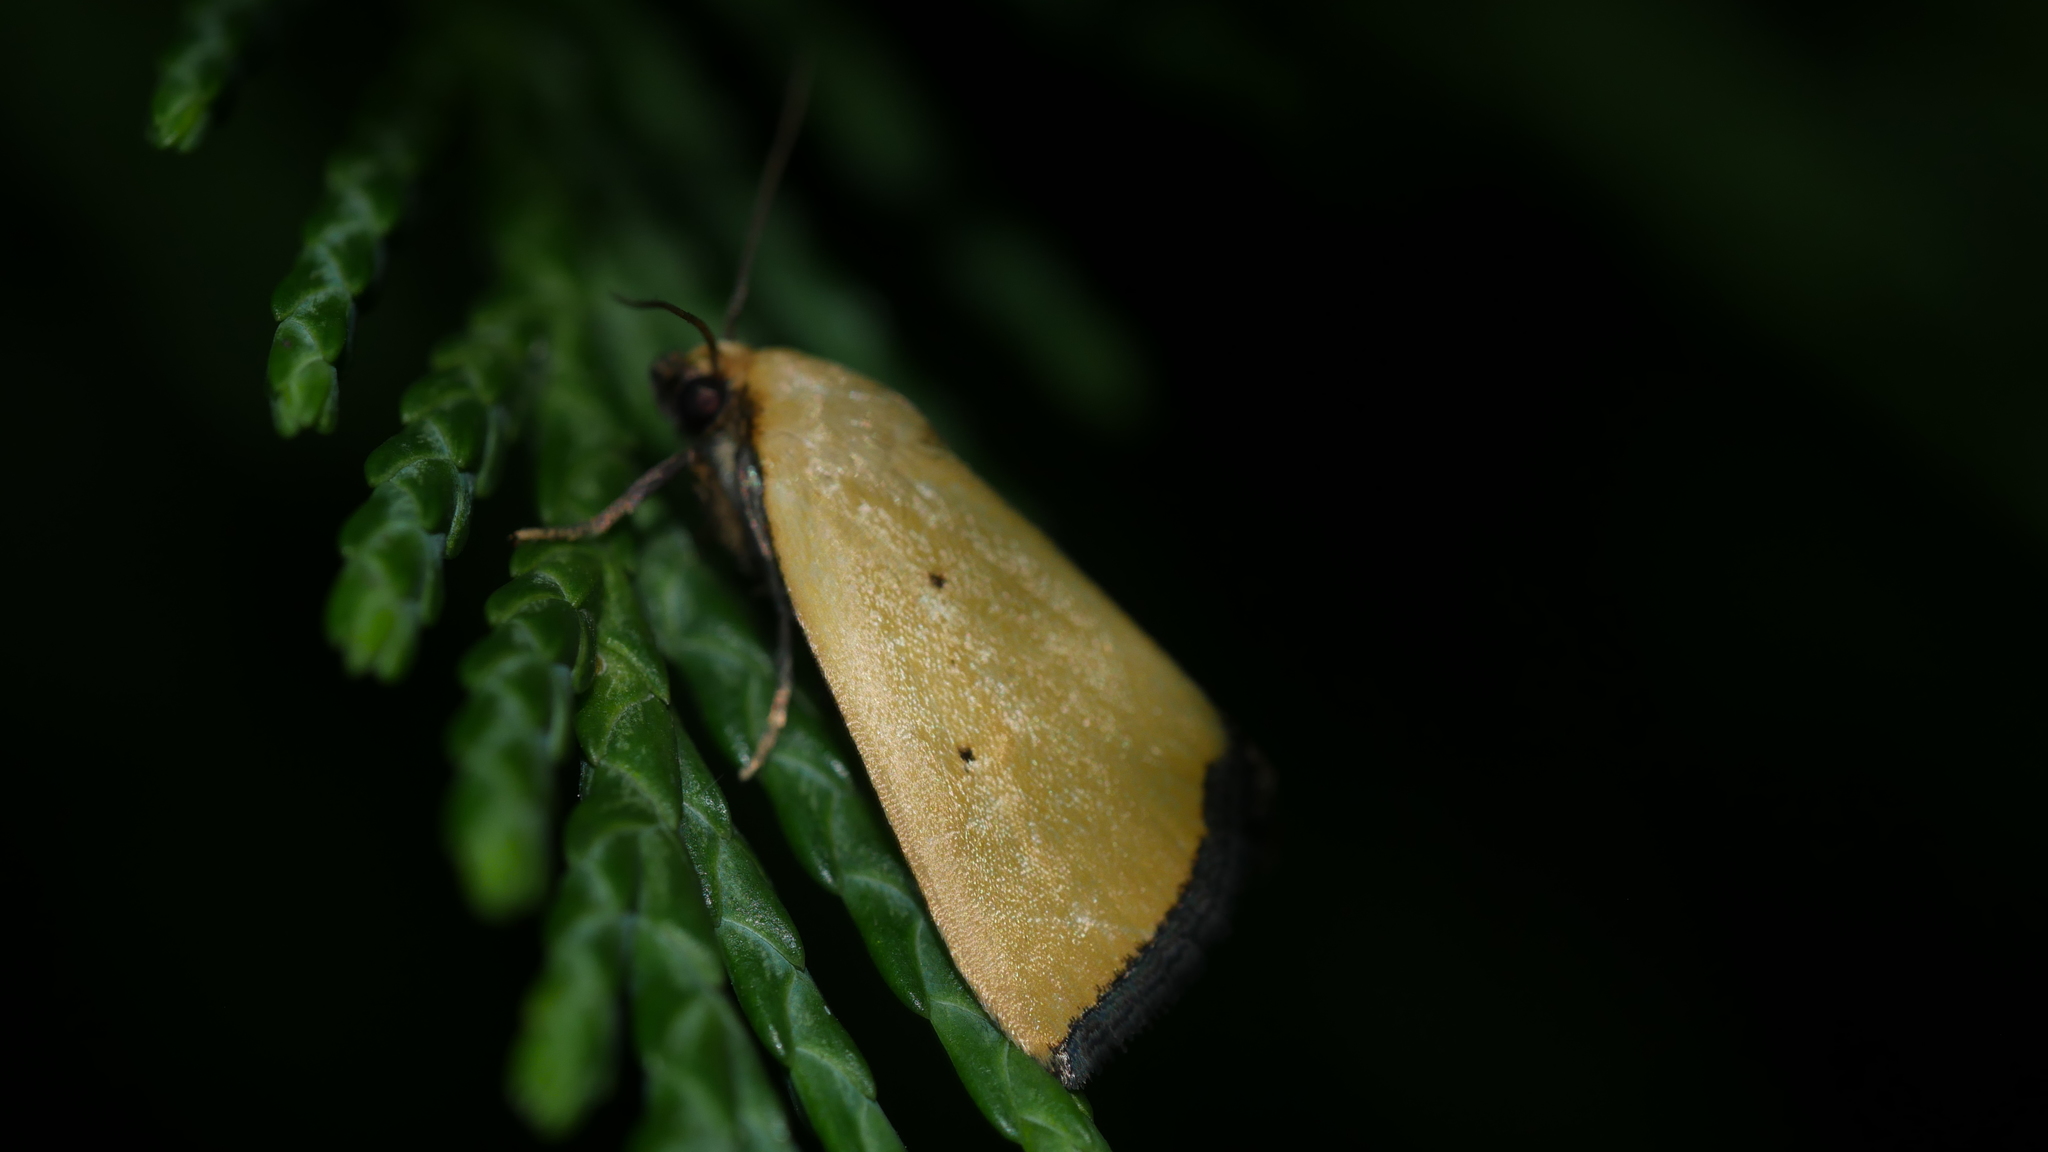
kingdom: Animalia
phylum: Arthropoda
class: Insecta
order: Lepidoptera
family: Noctuidae
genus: Marimatha
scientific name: Marimatha nigrofimbria
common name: Black-bordered lemon moth
